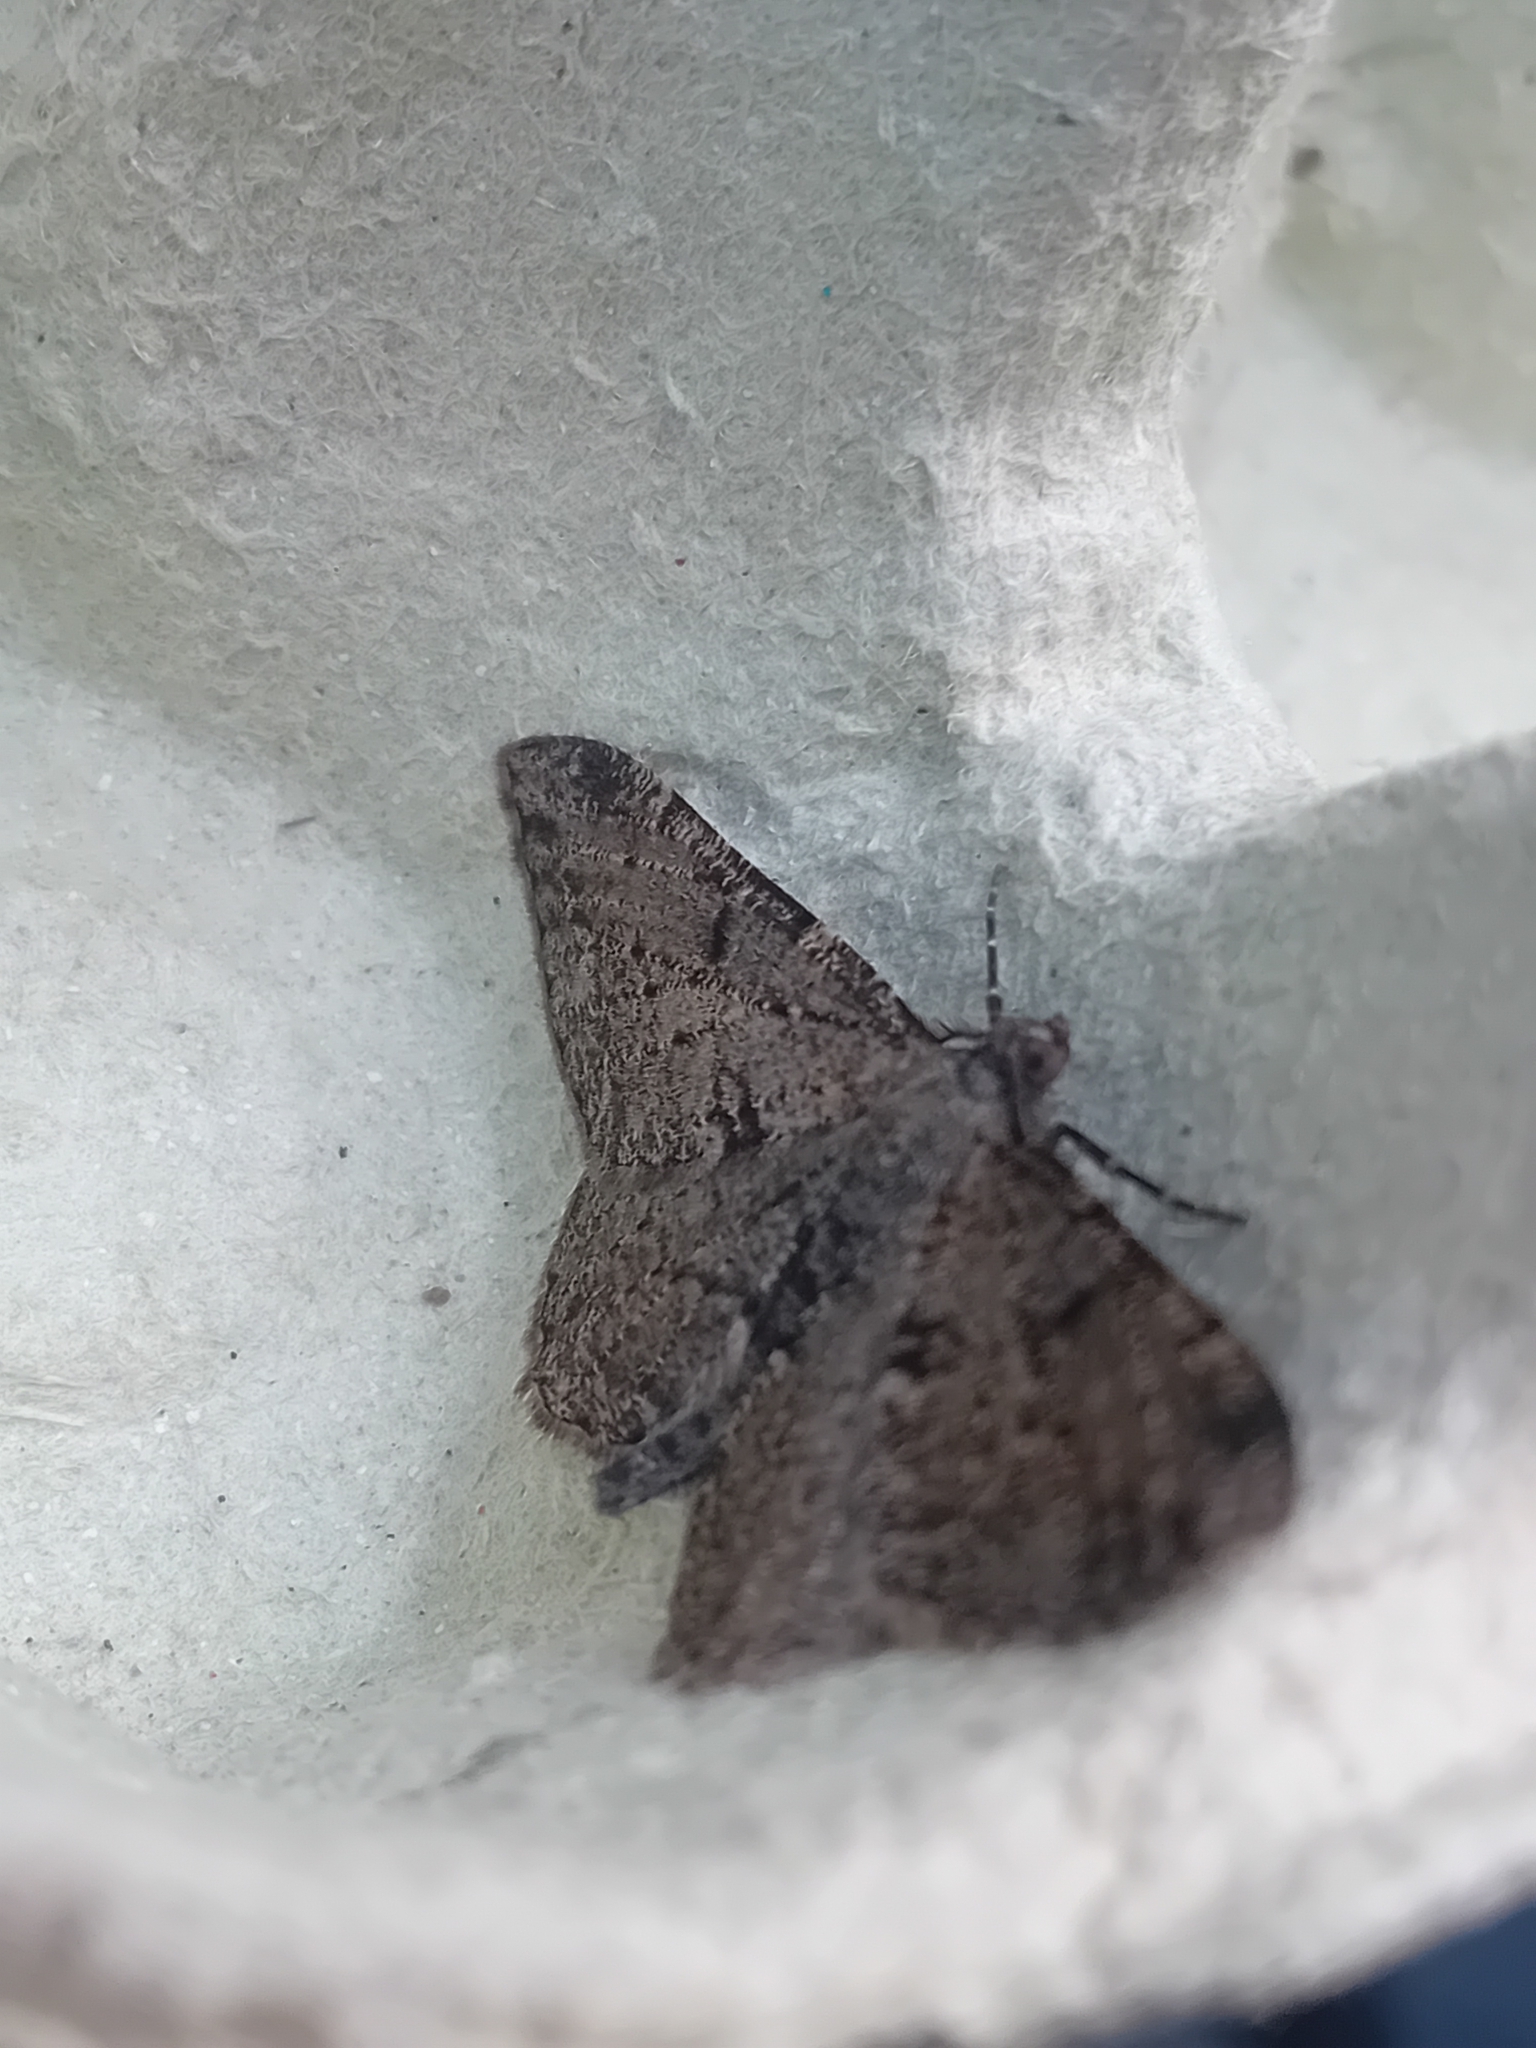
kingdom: Animalia
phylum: Arthropoda
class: Insecta
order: Lepidoptera
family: Geometridae
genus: Peribatodes
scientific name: Peribatodes rhomboidaria
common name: Willow beauty
